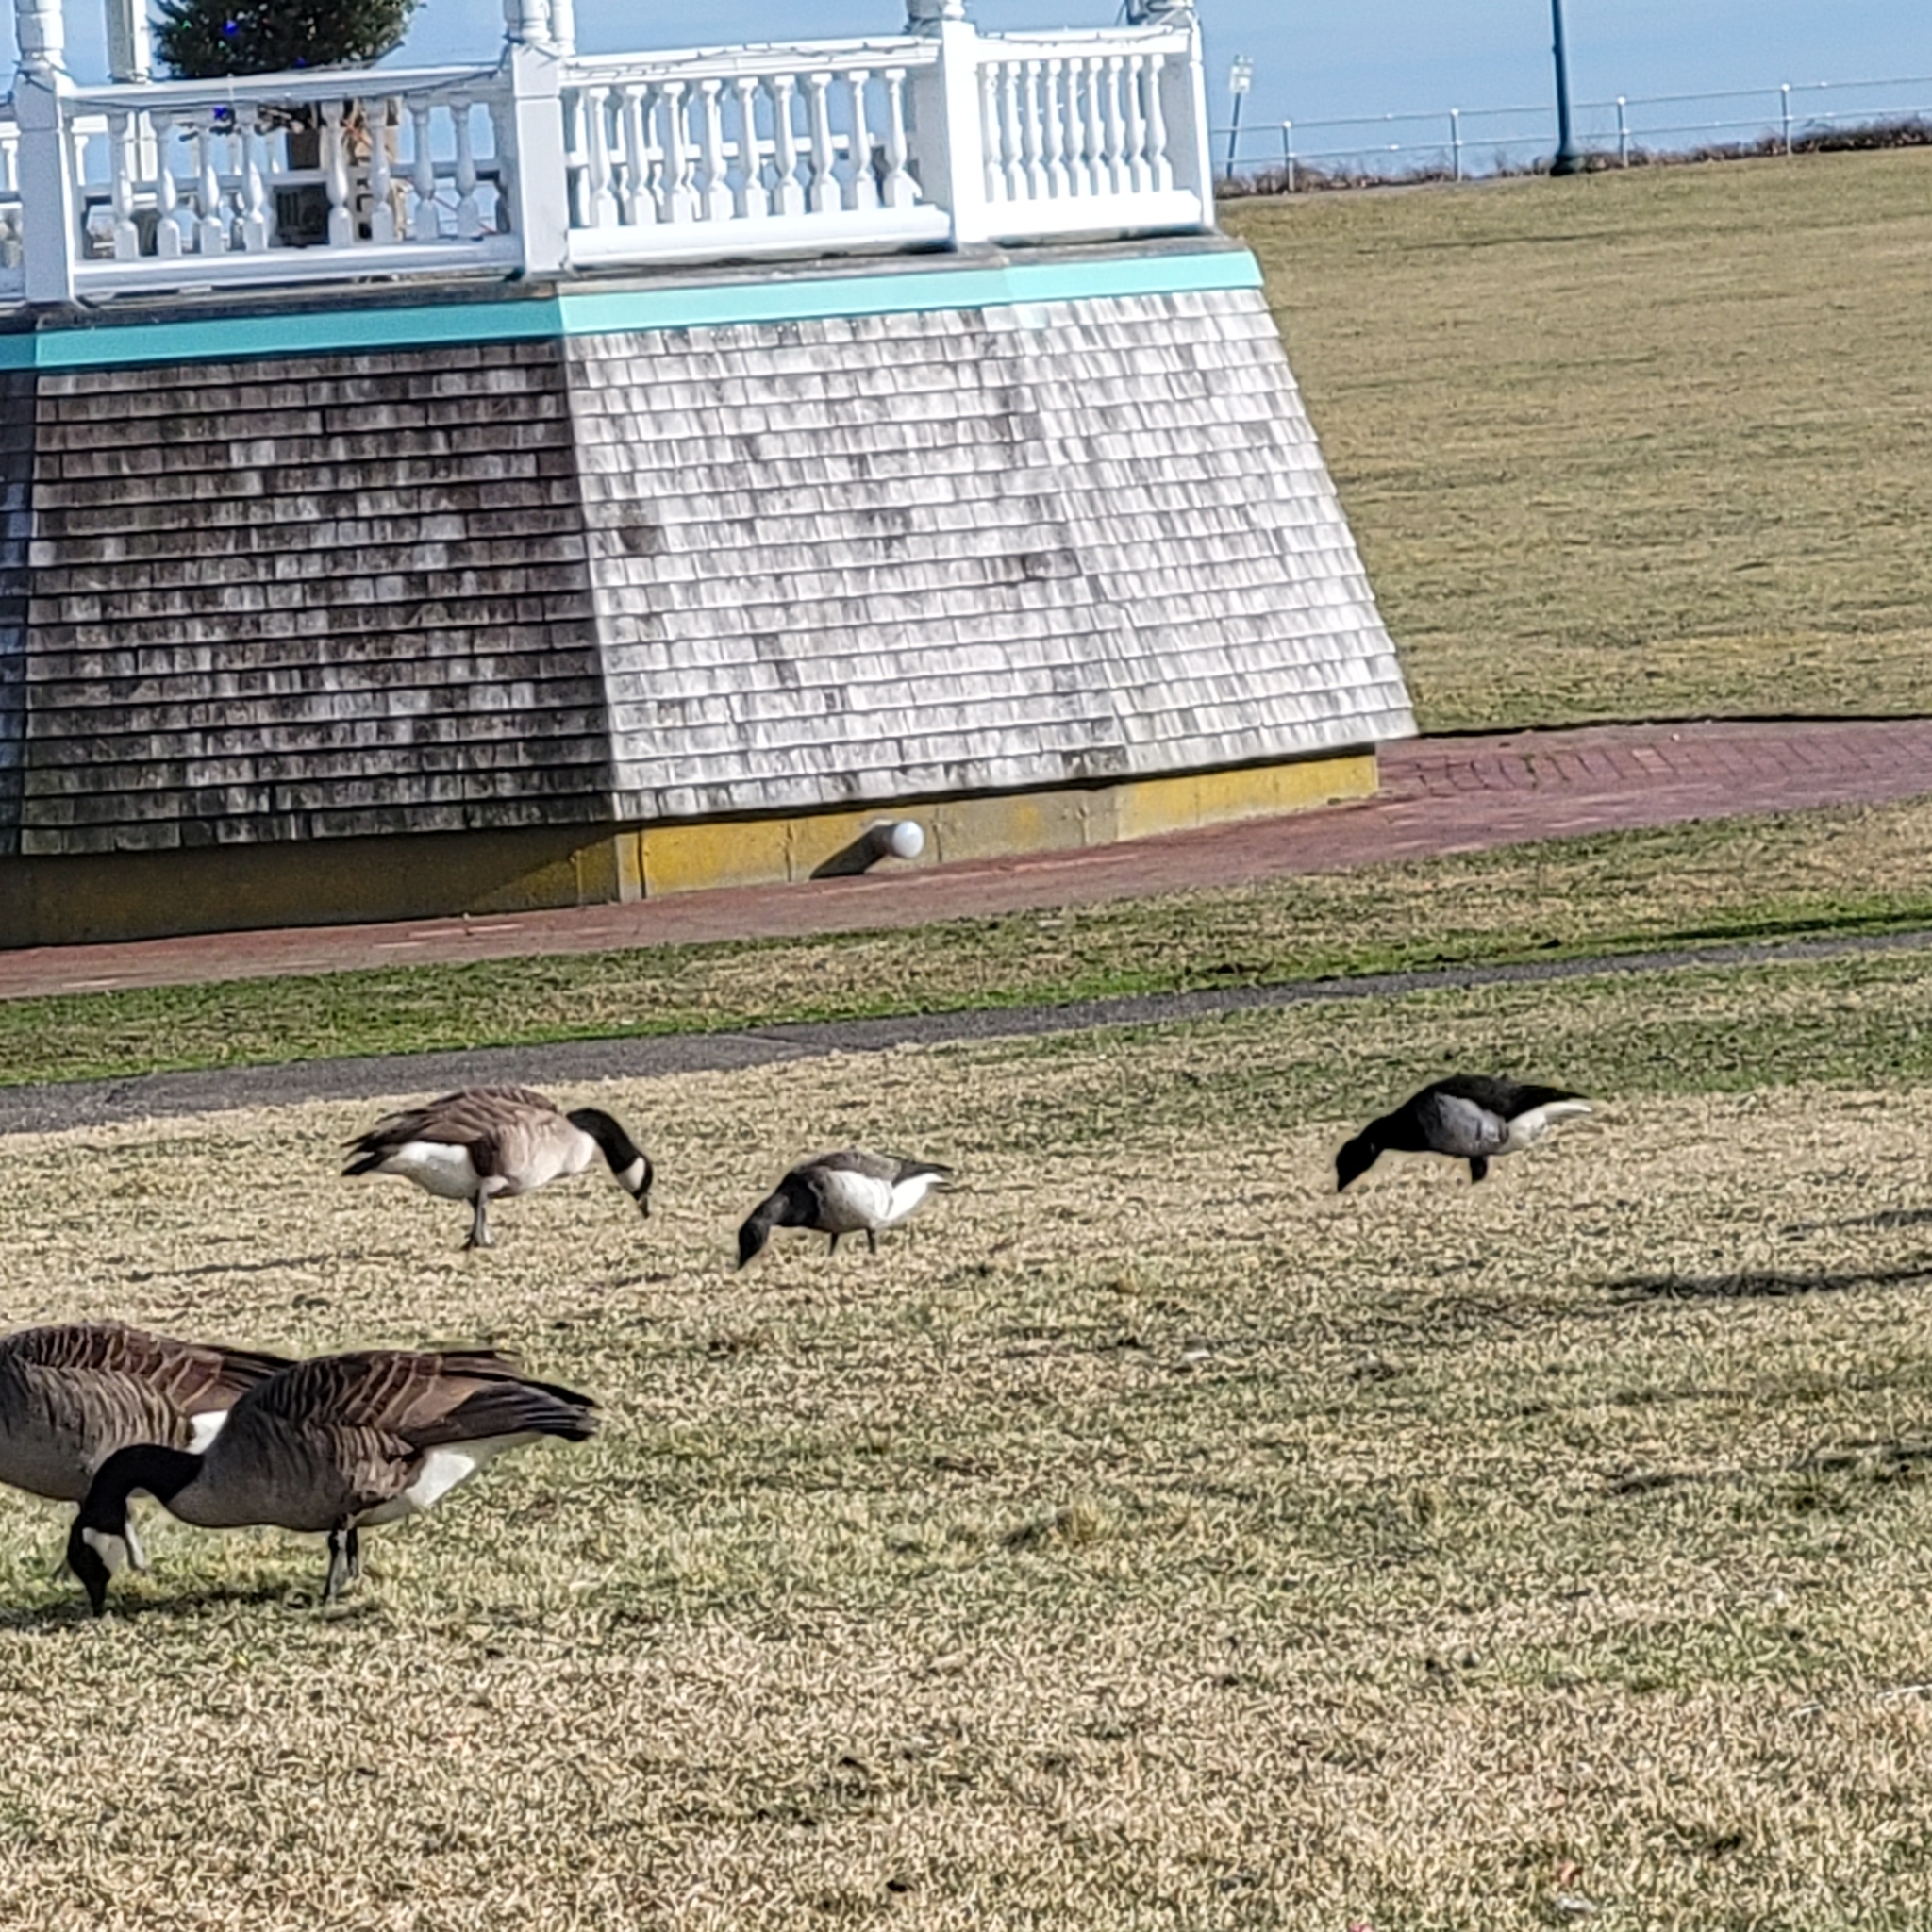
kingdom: Animalia
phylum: Chordata
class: Aves
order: Anseriformes
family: Anatidae
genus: Branta
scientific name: Branta bernicla
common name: Brant goose
